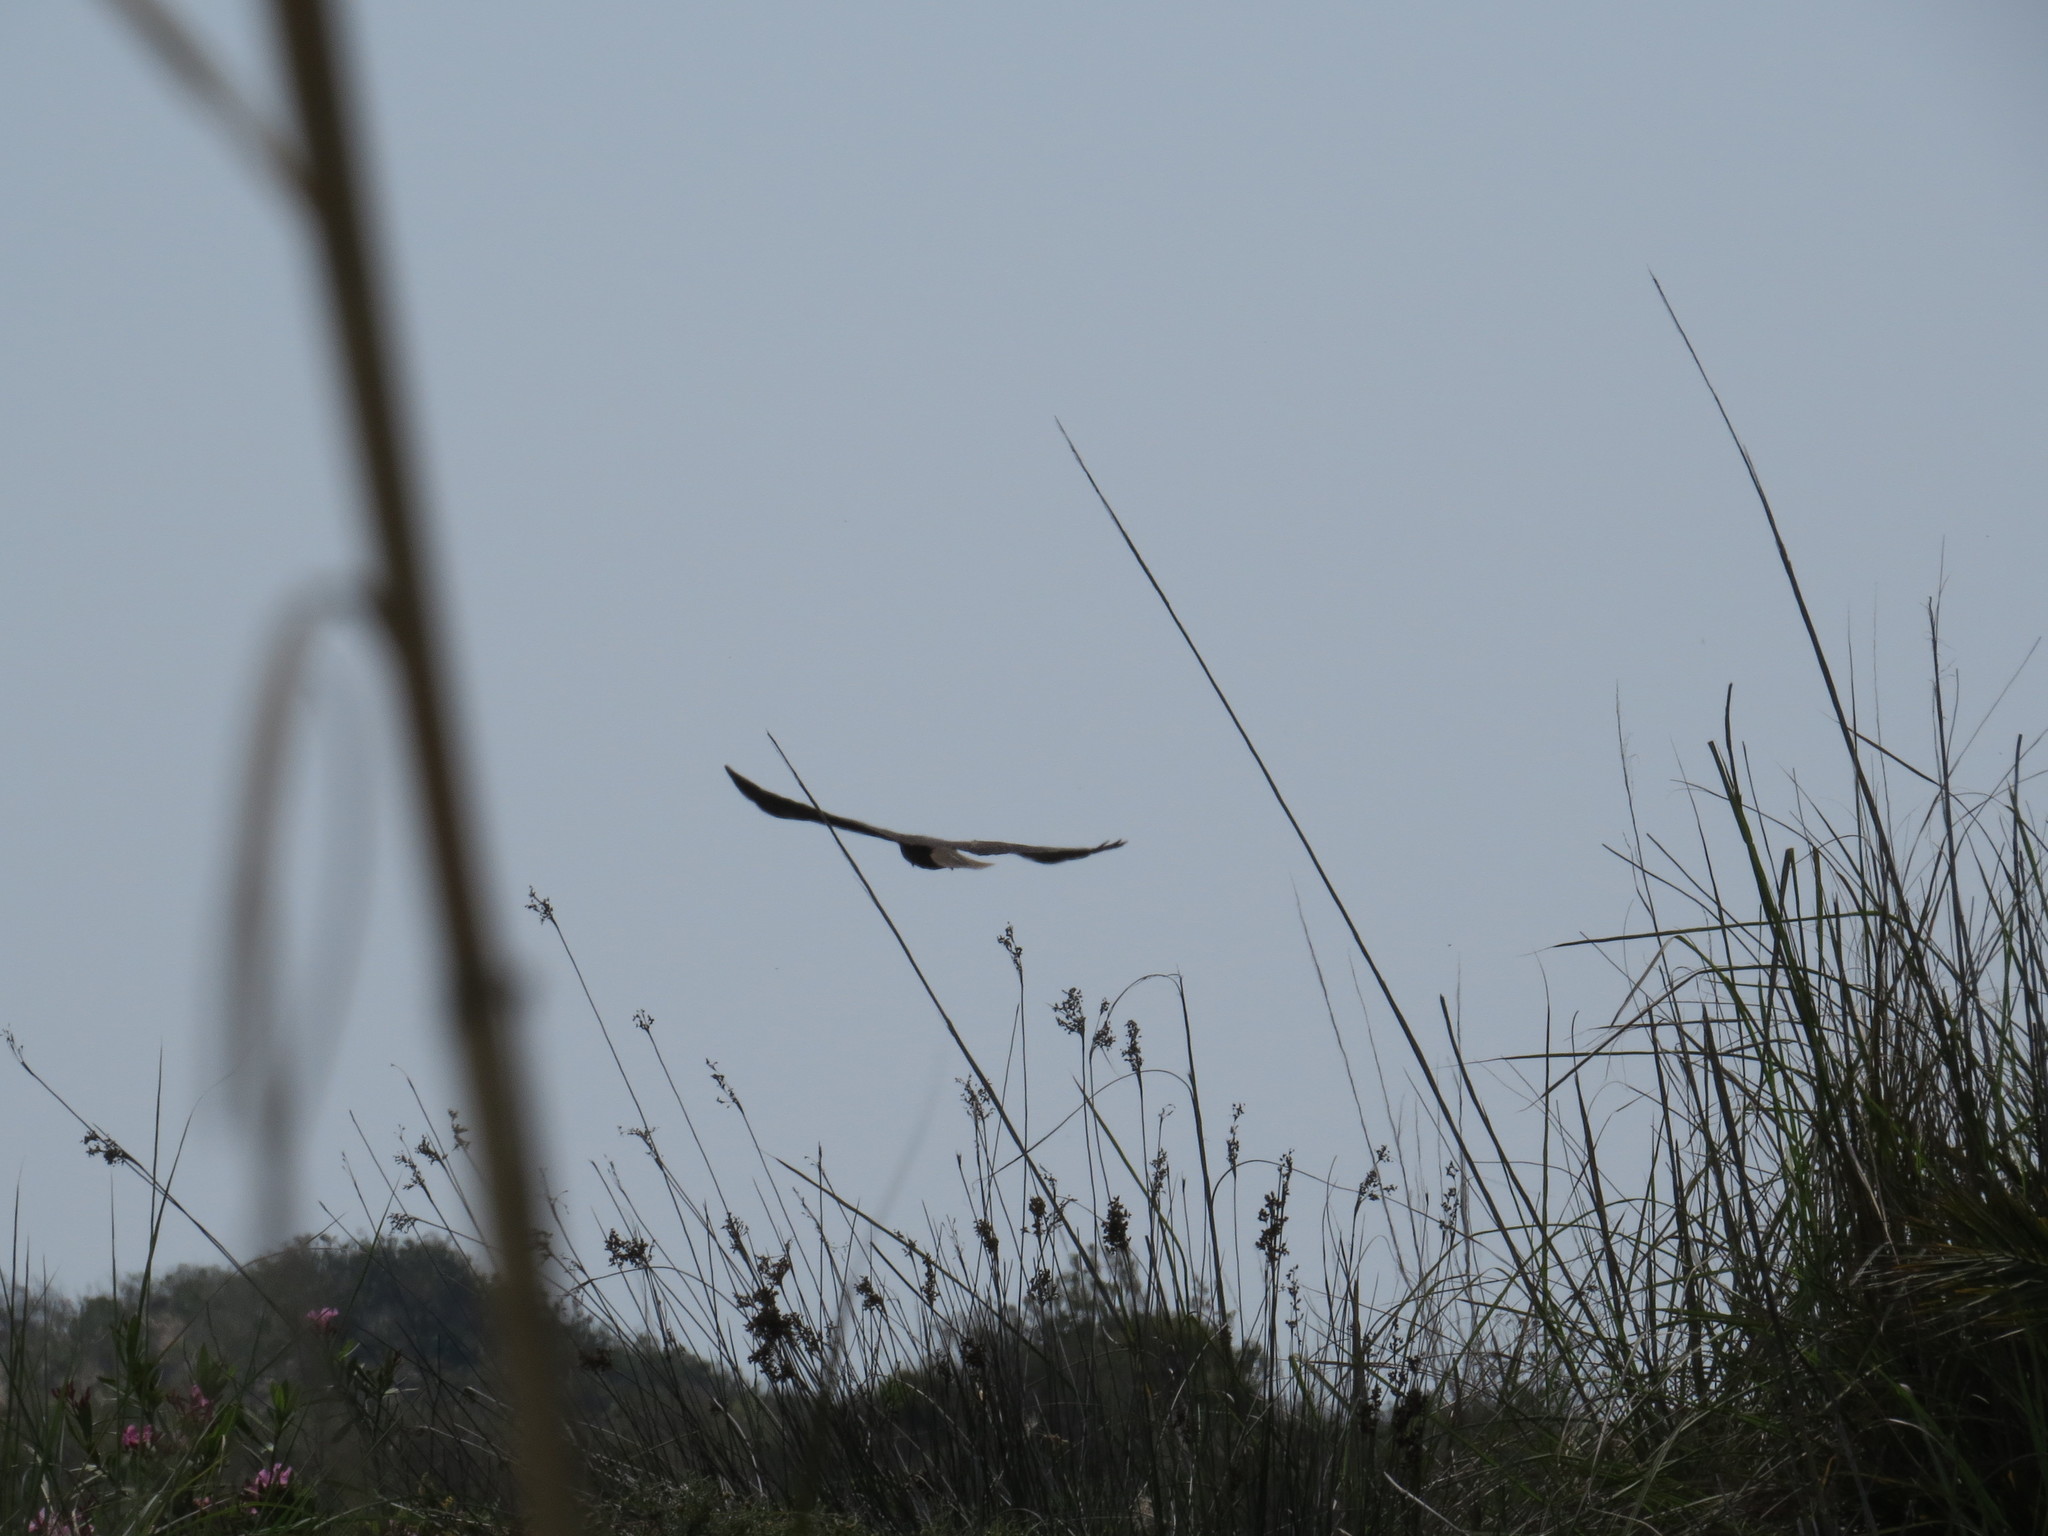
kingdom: Animalia
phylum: Chordata
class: Aves
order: Accipitriformes
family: Accipitridae
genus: Circus
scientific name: Circus aeruginosus
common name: Western marsh harrier
